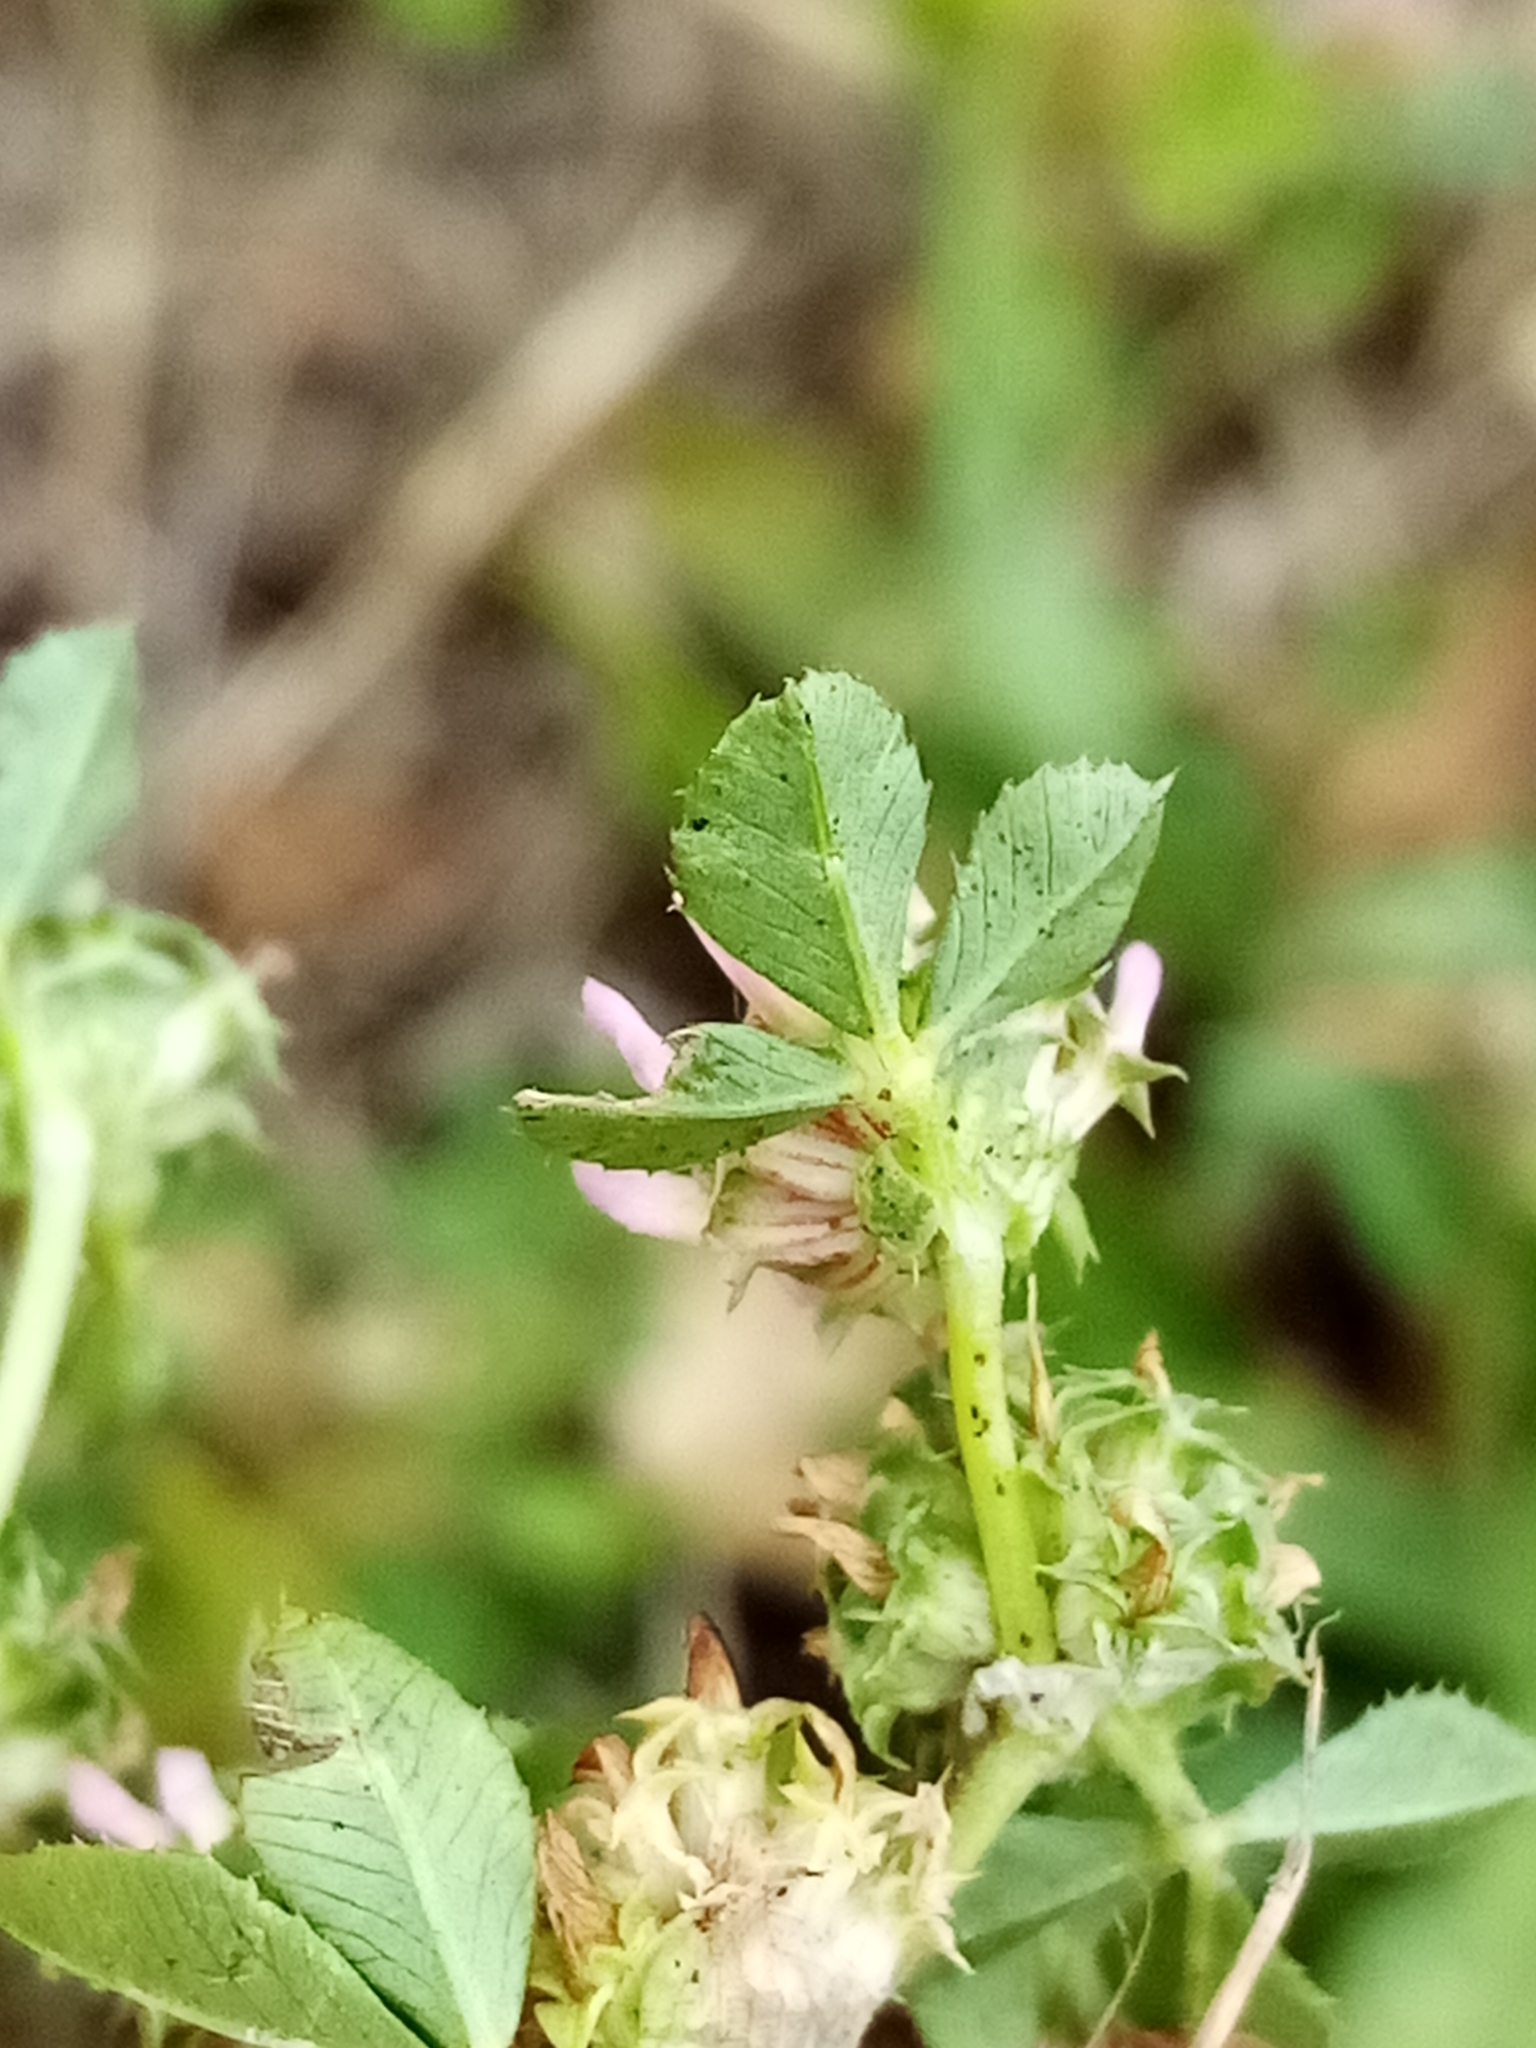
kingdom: Plantae
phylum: Tracheophyta
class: Magnoliopsida
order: Fabales
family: Fabaceae
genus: Trifolium
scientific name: Trifolium glomeratum
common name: Clustered clover
